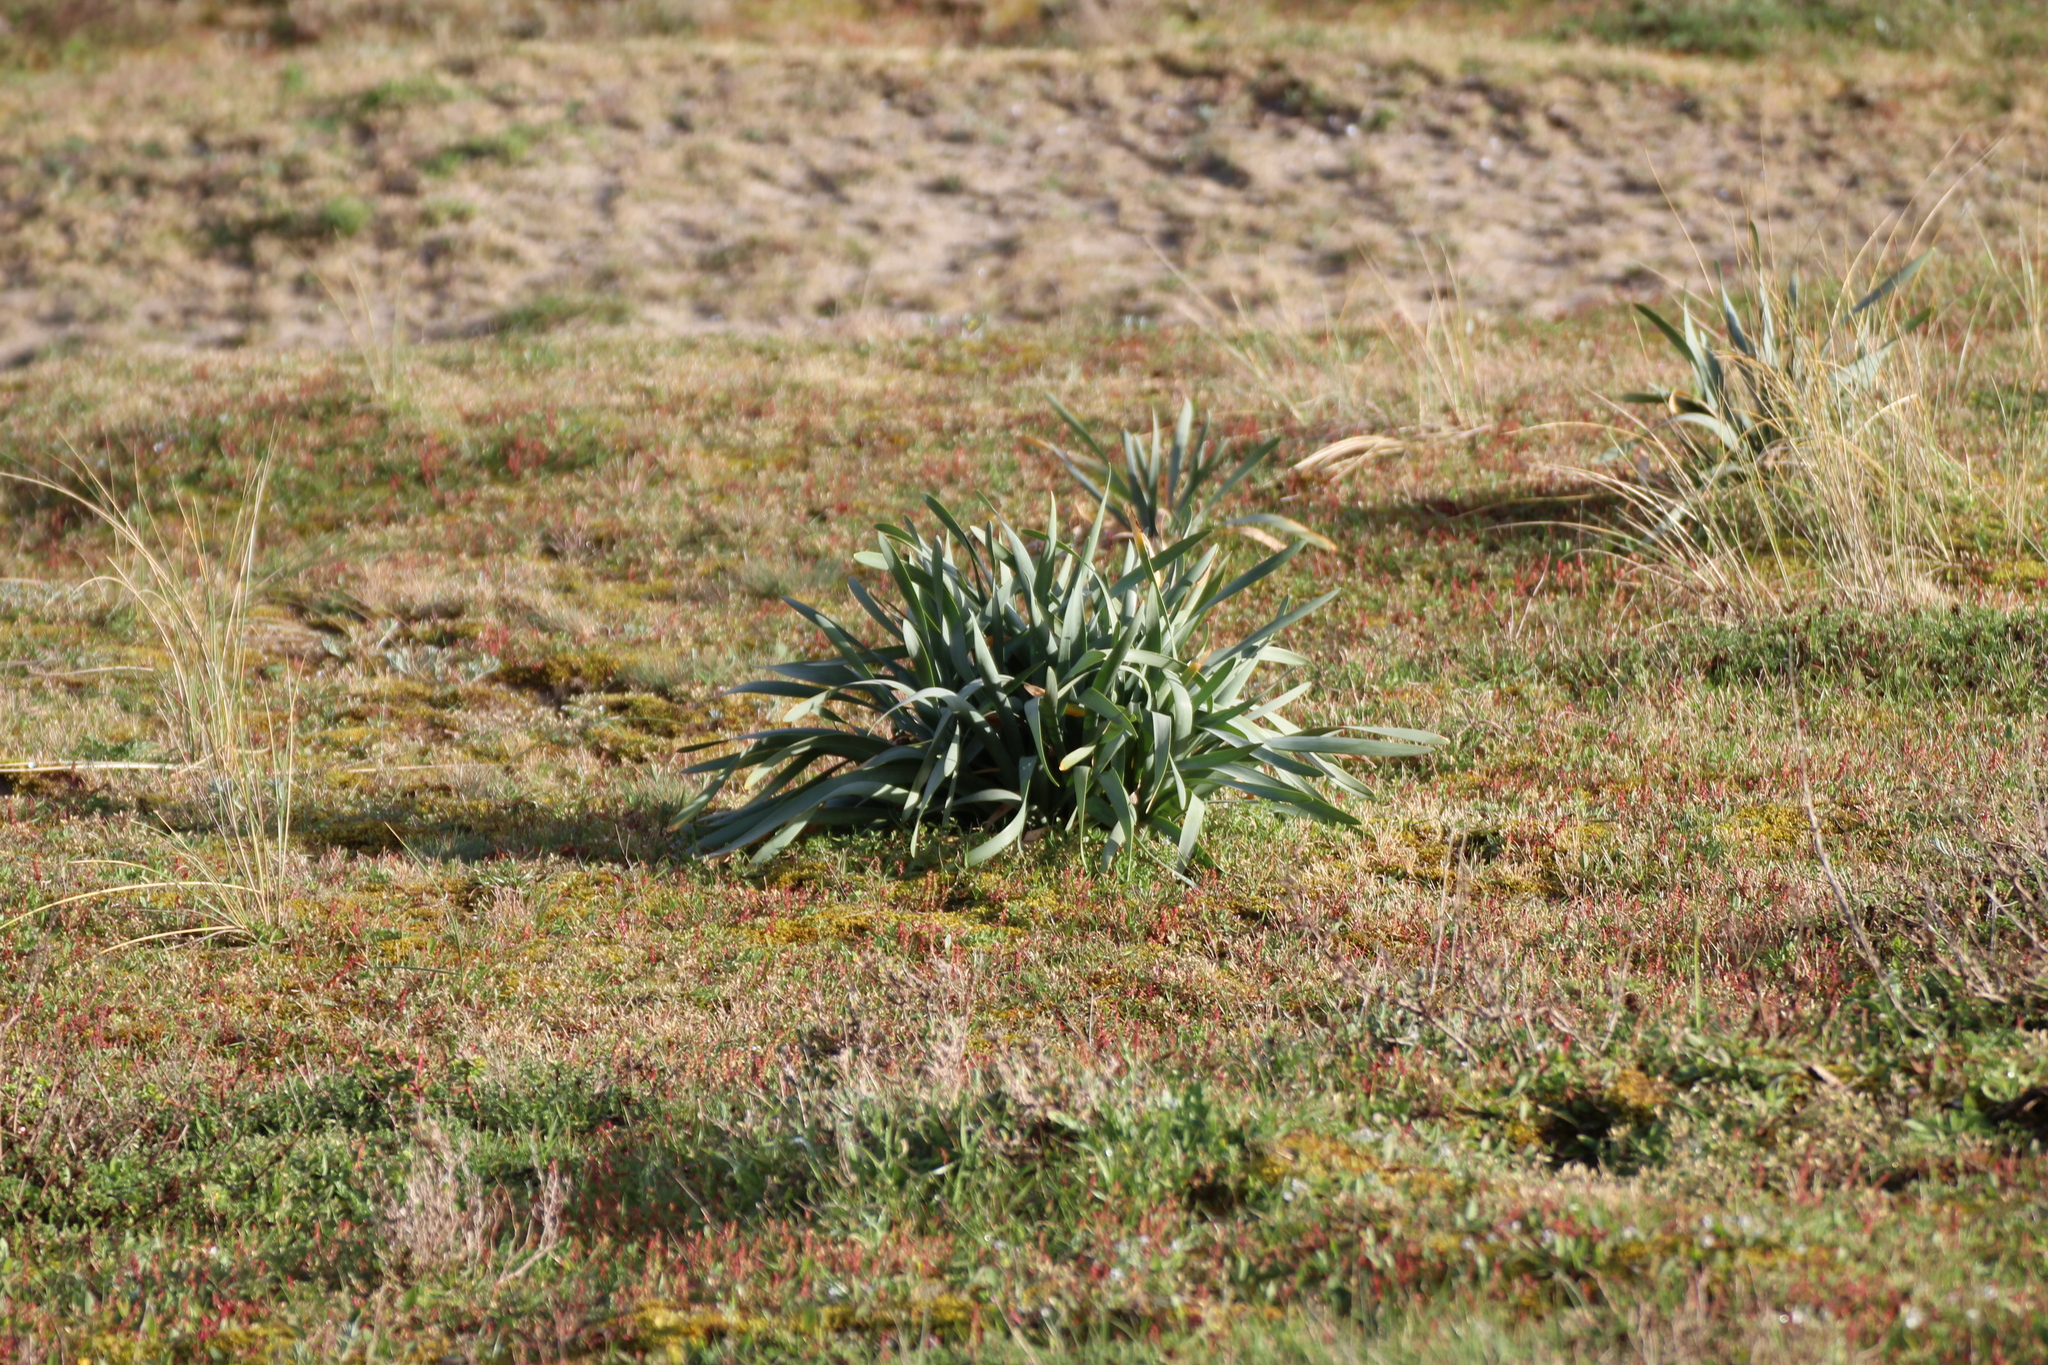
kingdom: Plantae
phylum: Tracheophyta
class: Liliopsida
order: Asparagales
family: Amaryllidaceae
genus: Pancratium
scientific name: Pancratium maritimum
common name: Sea-daffodil
